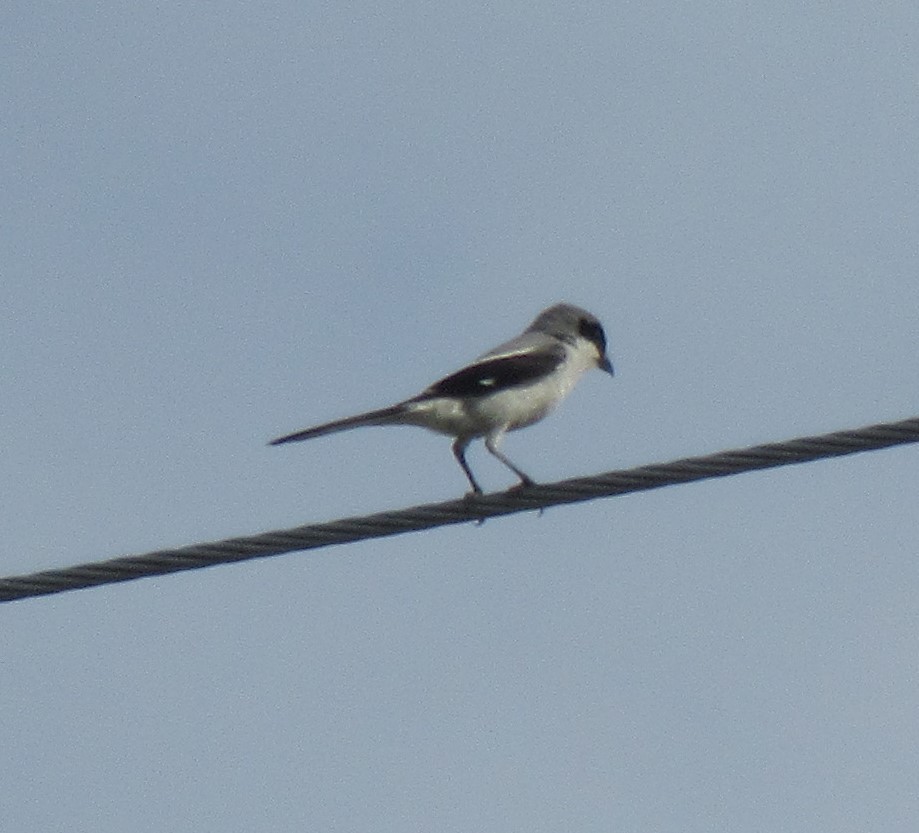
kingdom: Animalia
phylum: Chordata
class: Aves
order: Passeriformes
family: Laniidae
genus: Lanius
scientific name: Lanius ludovicianus
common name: Loggerhead shrike
